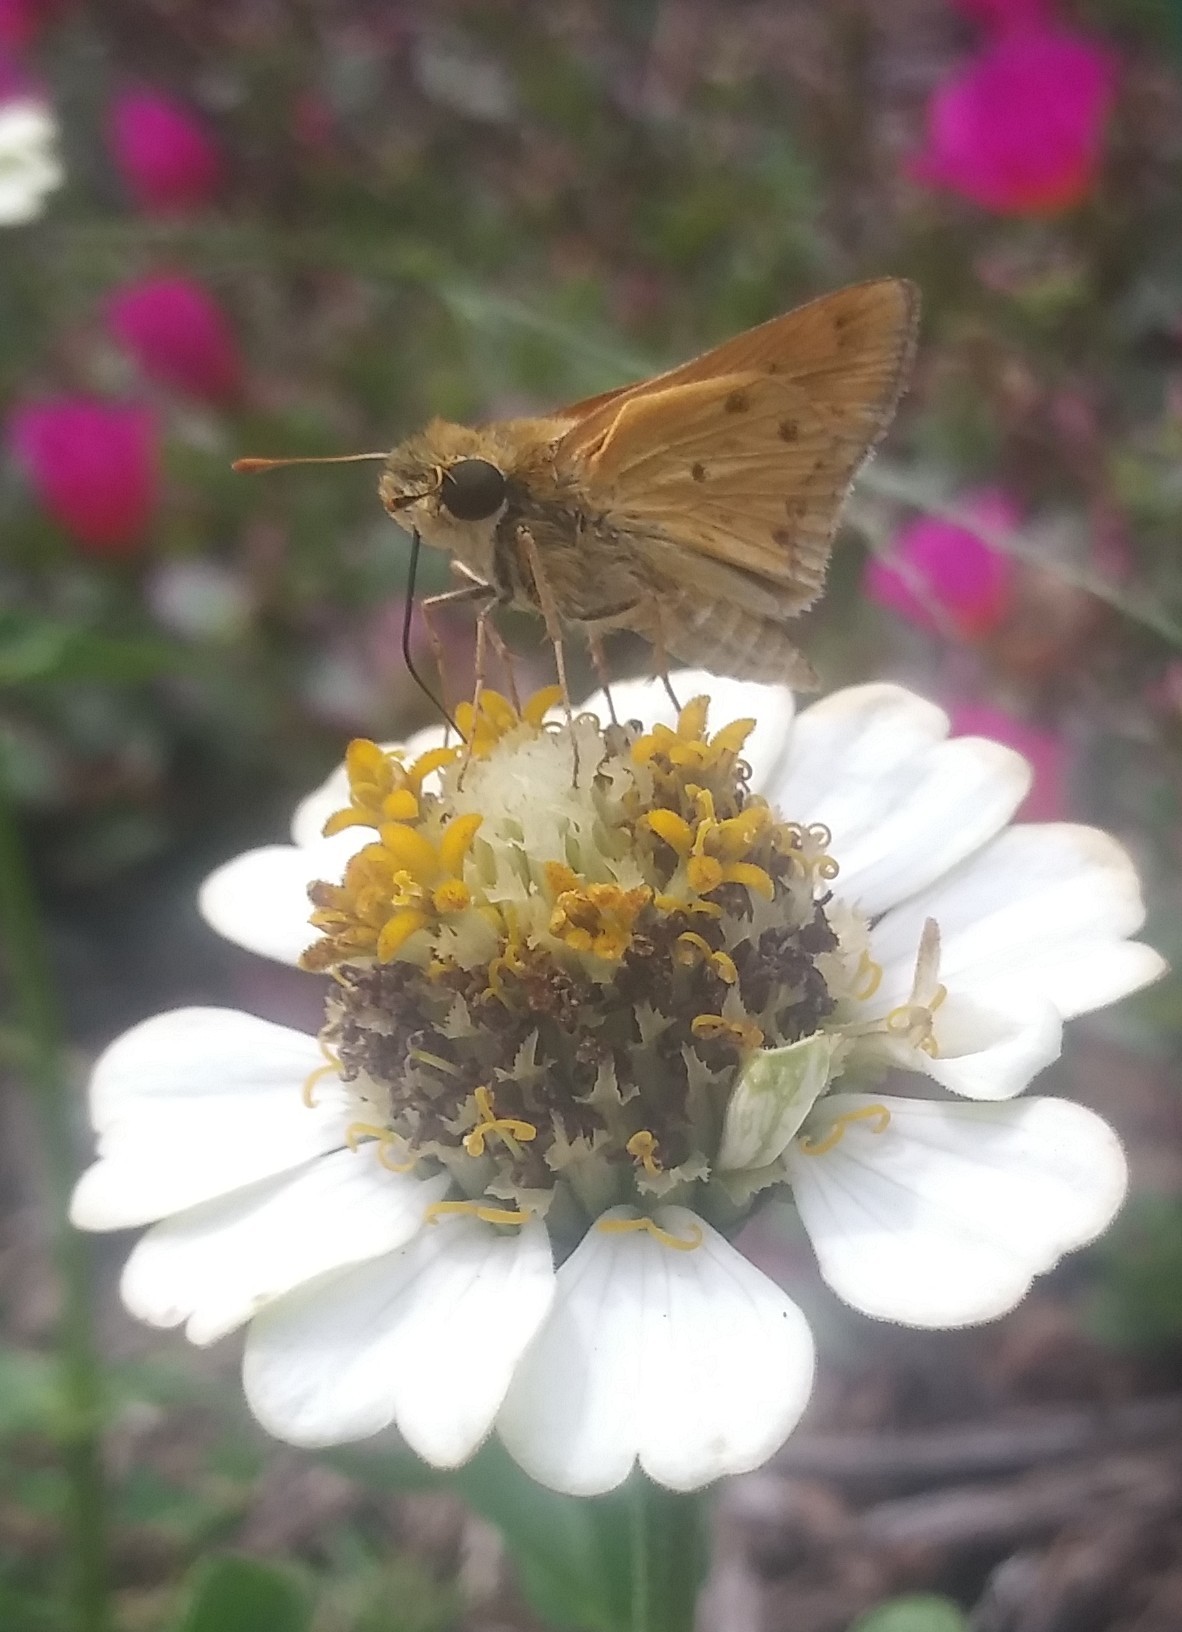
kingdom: Animalia
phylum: Arthropoda
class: Insecta
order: Lepidoptera
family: Hesperiidae
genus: Hylephila
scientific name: Hylephila phyleus
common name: Fiery skipper
